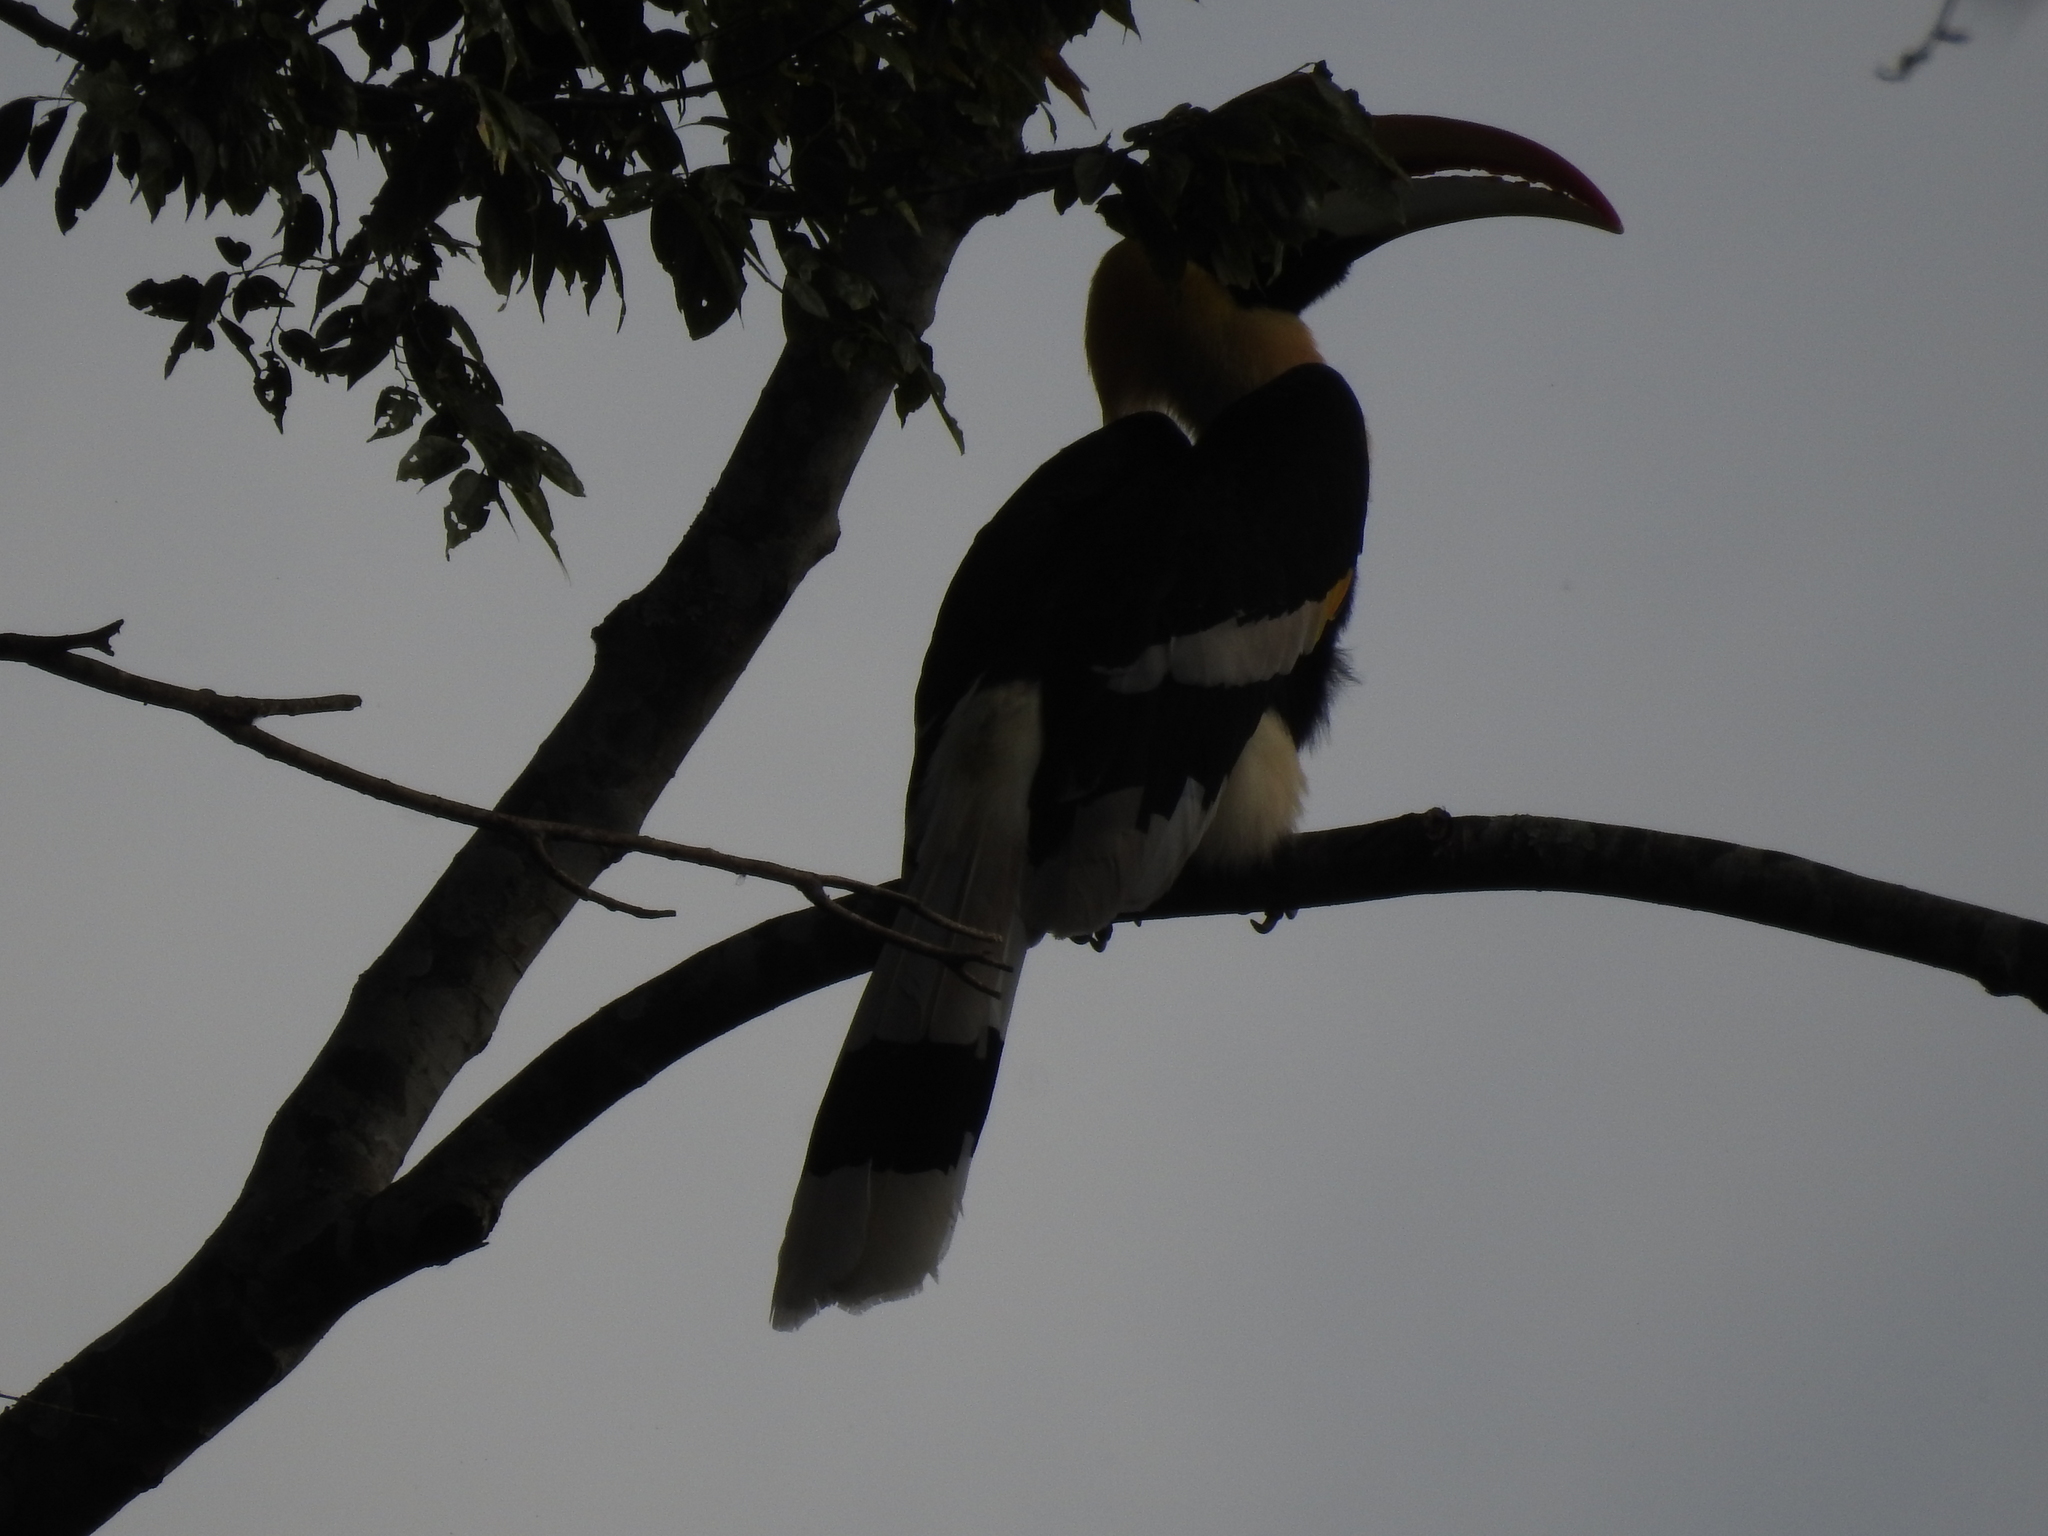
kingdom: Animalia
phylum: Chordata
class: Aves
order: Bucerotiformes
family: Bucerotidae
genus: Buceros
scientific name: Buceros bicornis
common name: Great hornbill
